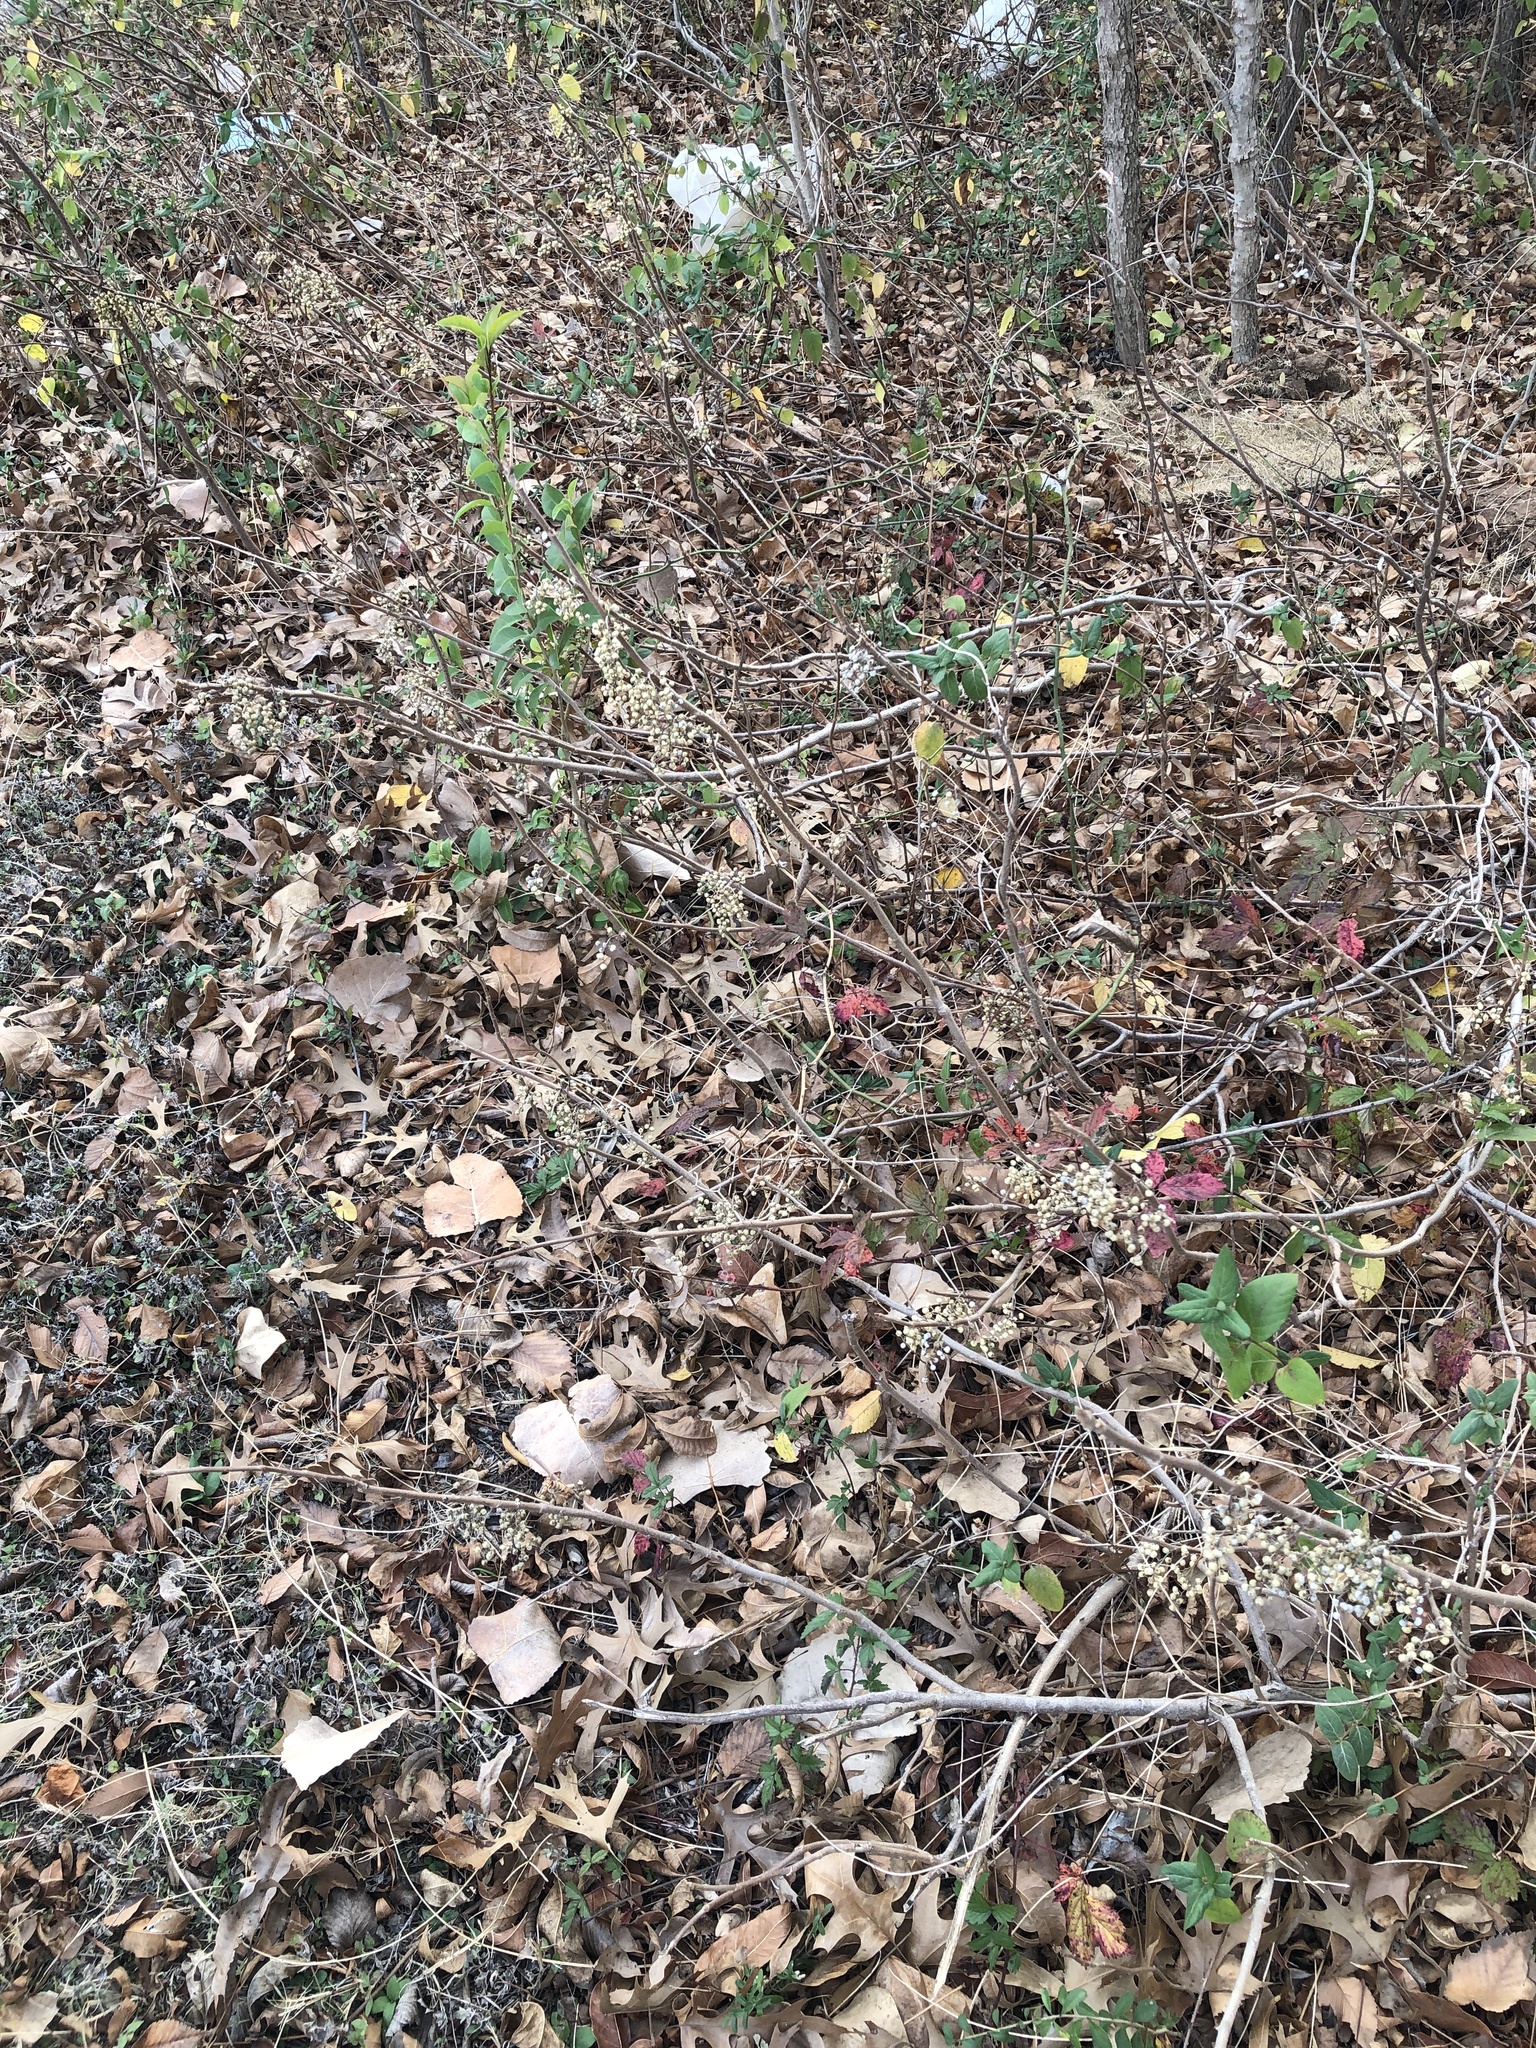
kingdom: Plantae
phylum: Tracheophyta
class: Magnoliopsida
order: Sapindales
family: Anacardiaceae
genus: Toxicodendron
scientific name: Toxicodendron radicans
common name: Poison ivy
